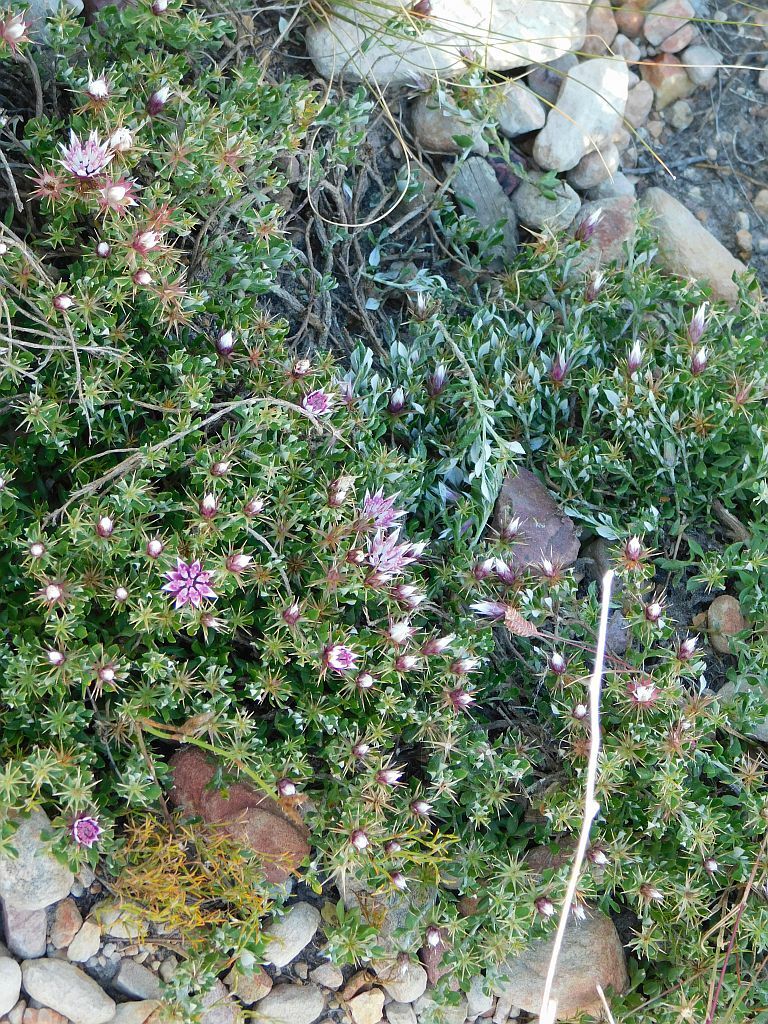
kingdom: Plantae
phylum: Tracheophyta
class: Magnoliopsida
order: Asterales
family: Asteraceae
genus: Macledium
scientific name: Macledium spinosum
